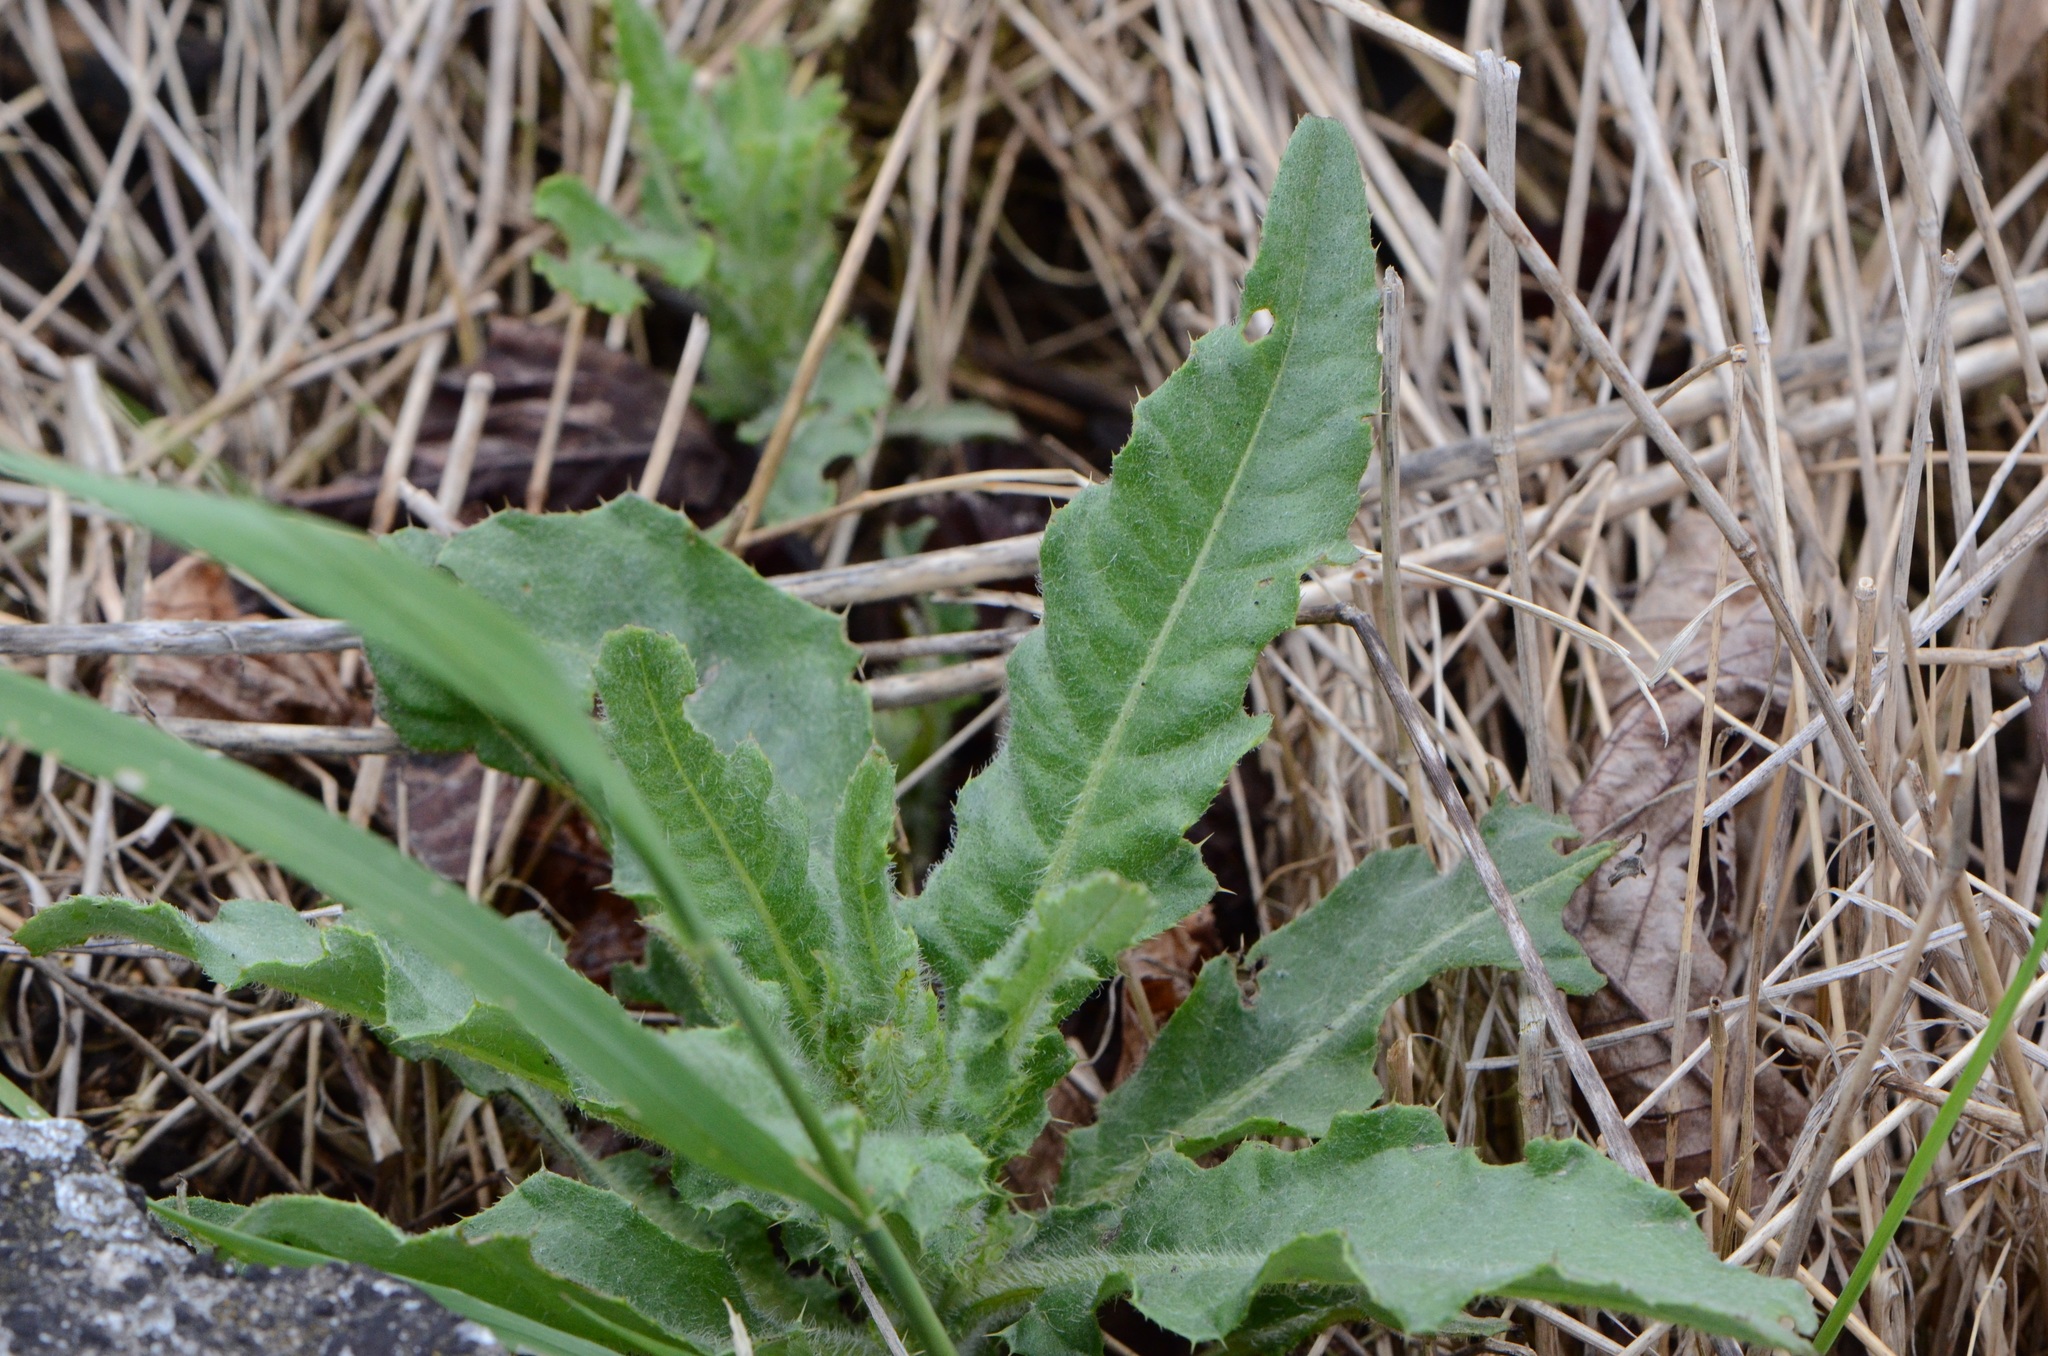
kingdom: Plantae
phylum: Tracheophyta
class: Magnoliopsida
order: Asterales
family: Asteraceae
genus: Cirsium
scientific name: Cirsium arvense
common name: Creeping thistle
